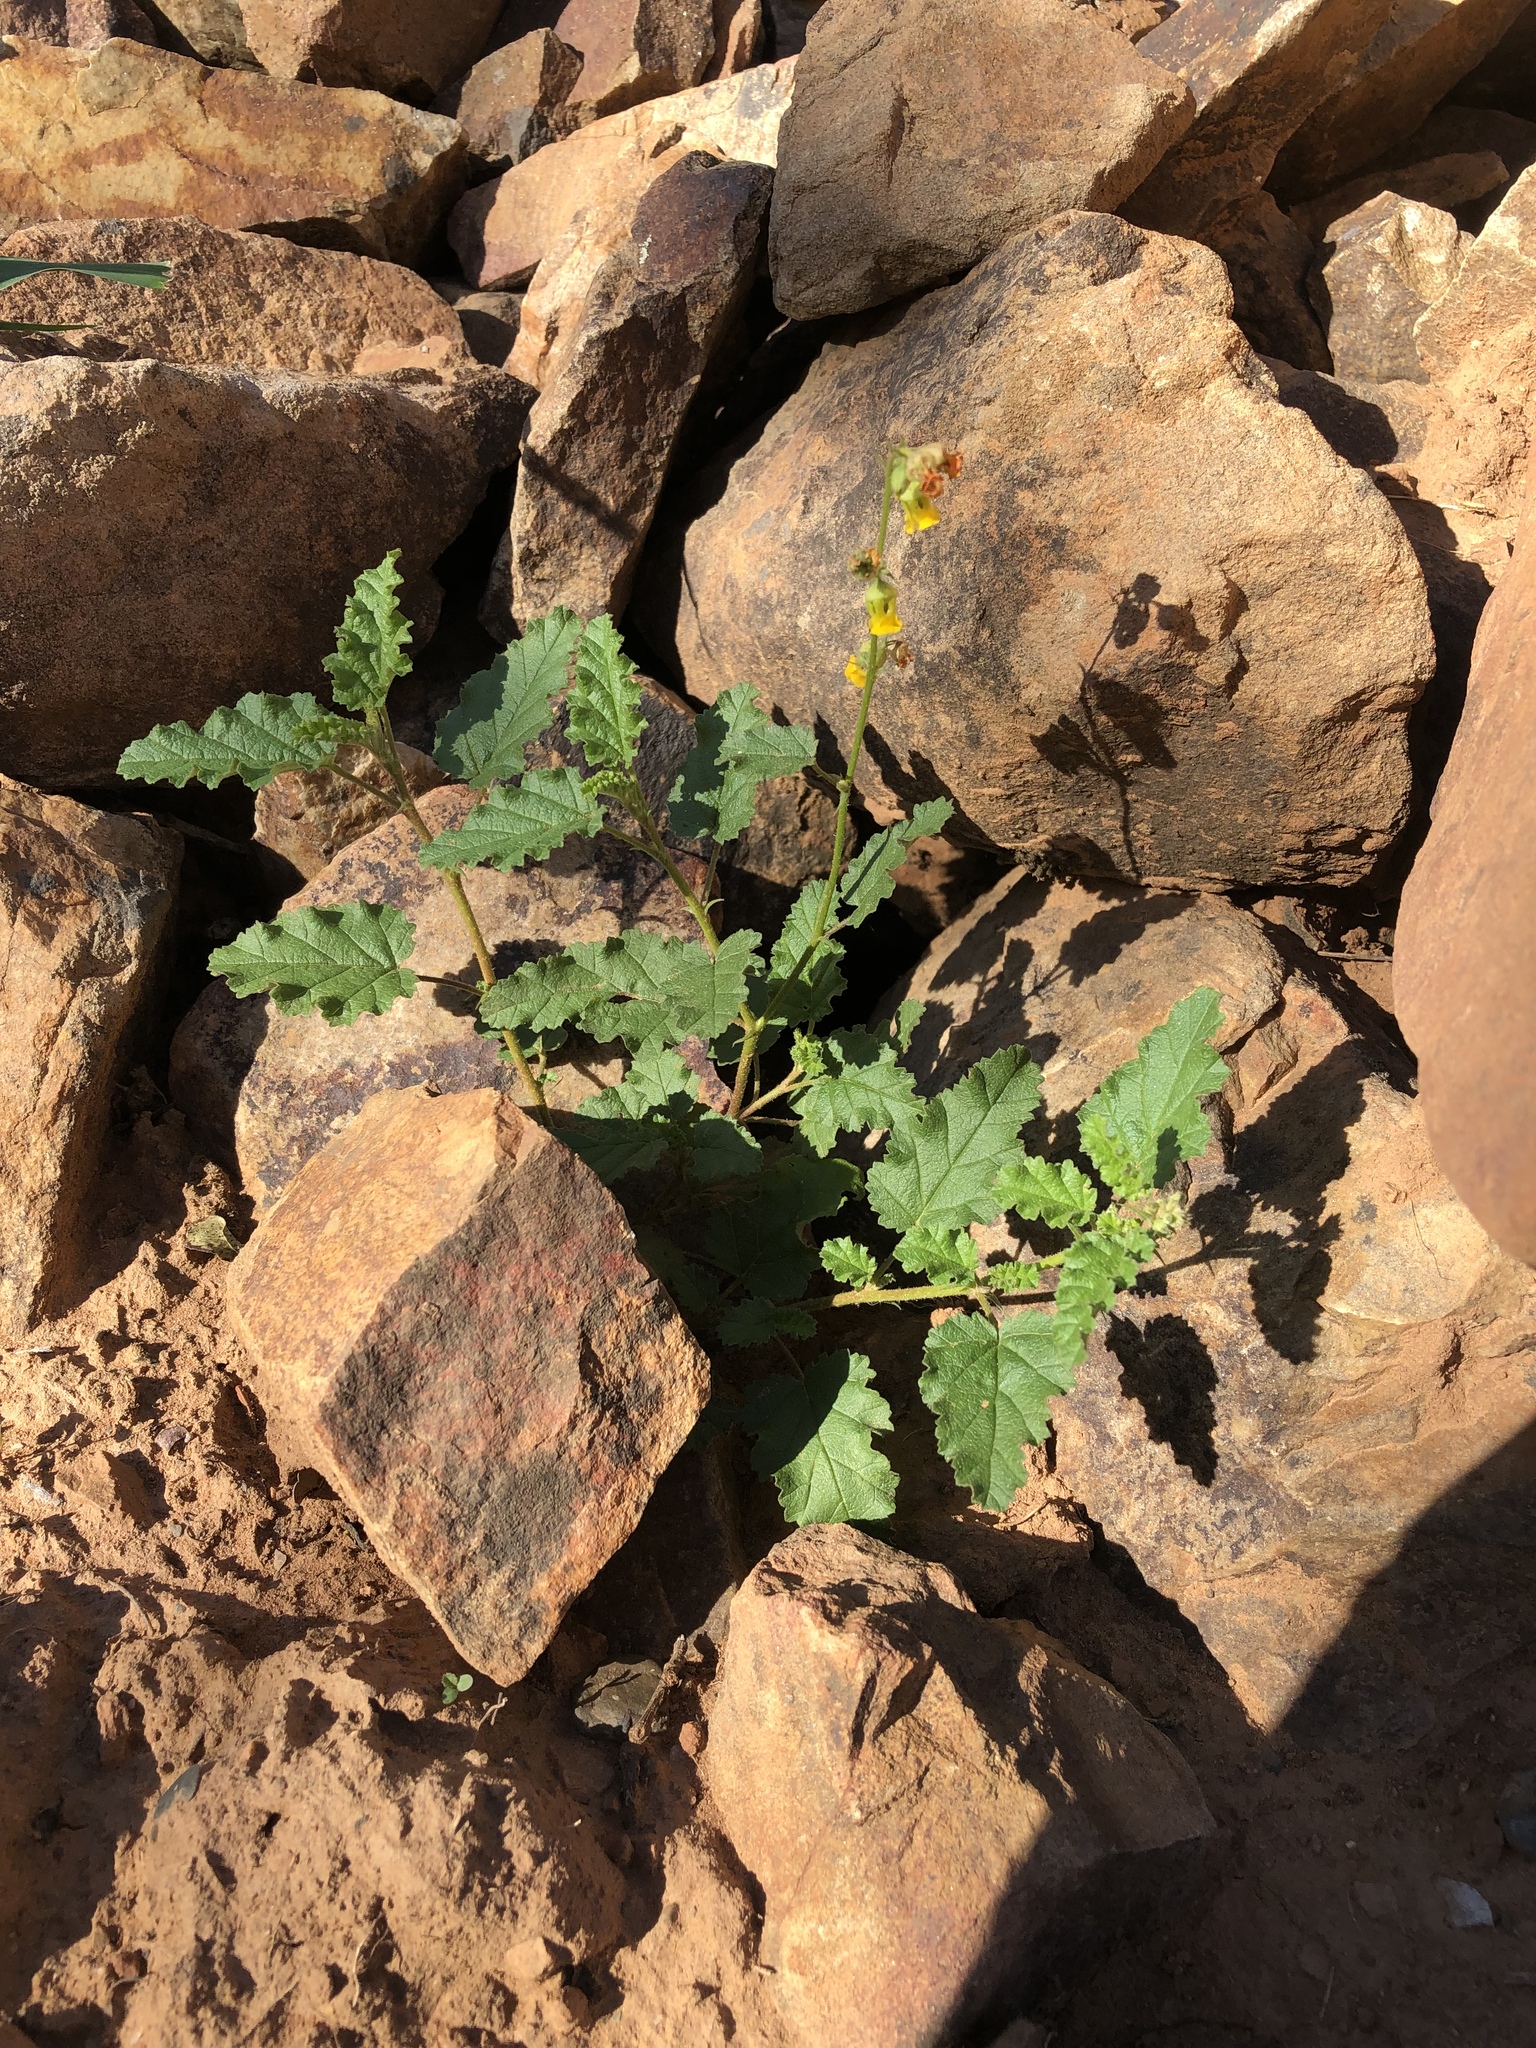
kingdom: Plantae
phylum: Tracheophyta
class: Magnoliopsida
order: Malvales
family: Malvaceae
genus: Hermannia
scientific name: Hermannia althaeoides
